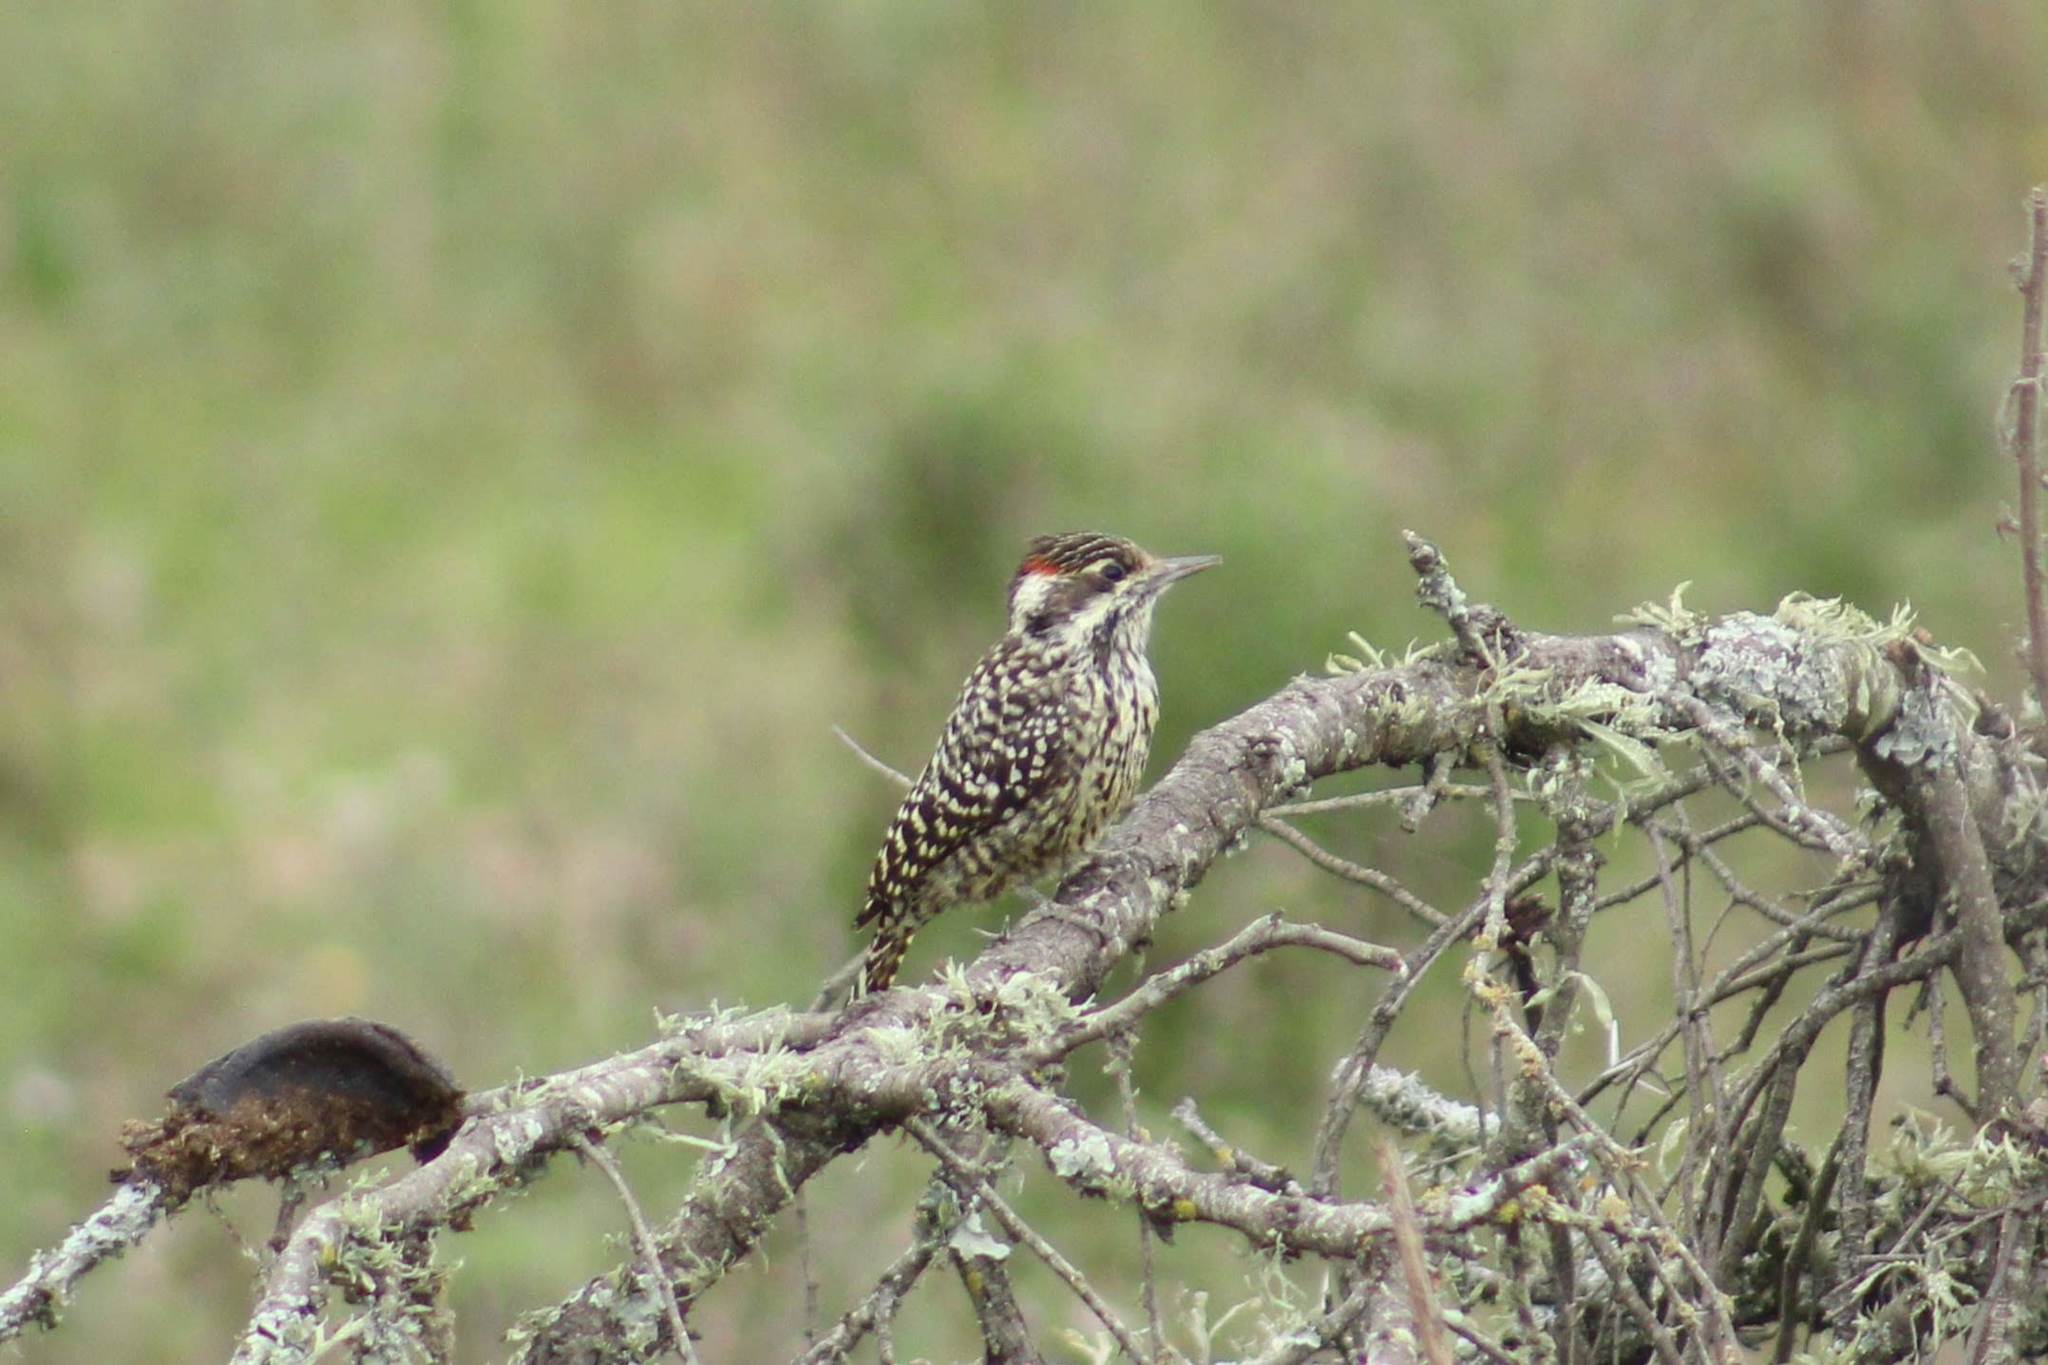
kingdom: Animalia
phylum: Chordata
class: Aves
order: Piciformes
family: Picidae
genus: Veniliornis
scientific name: Veniliornis mixtus
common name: Checkered woodpecker
